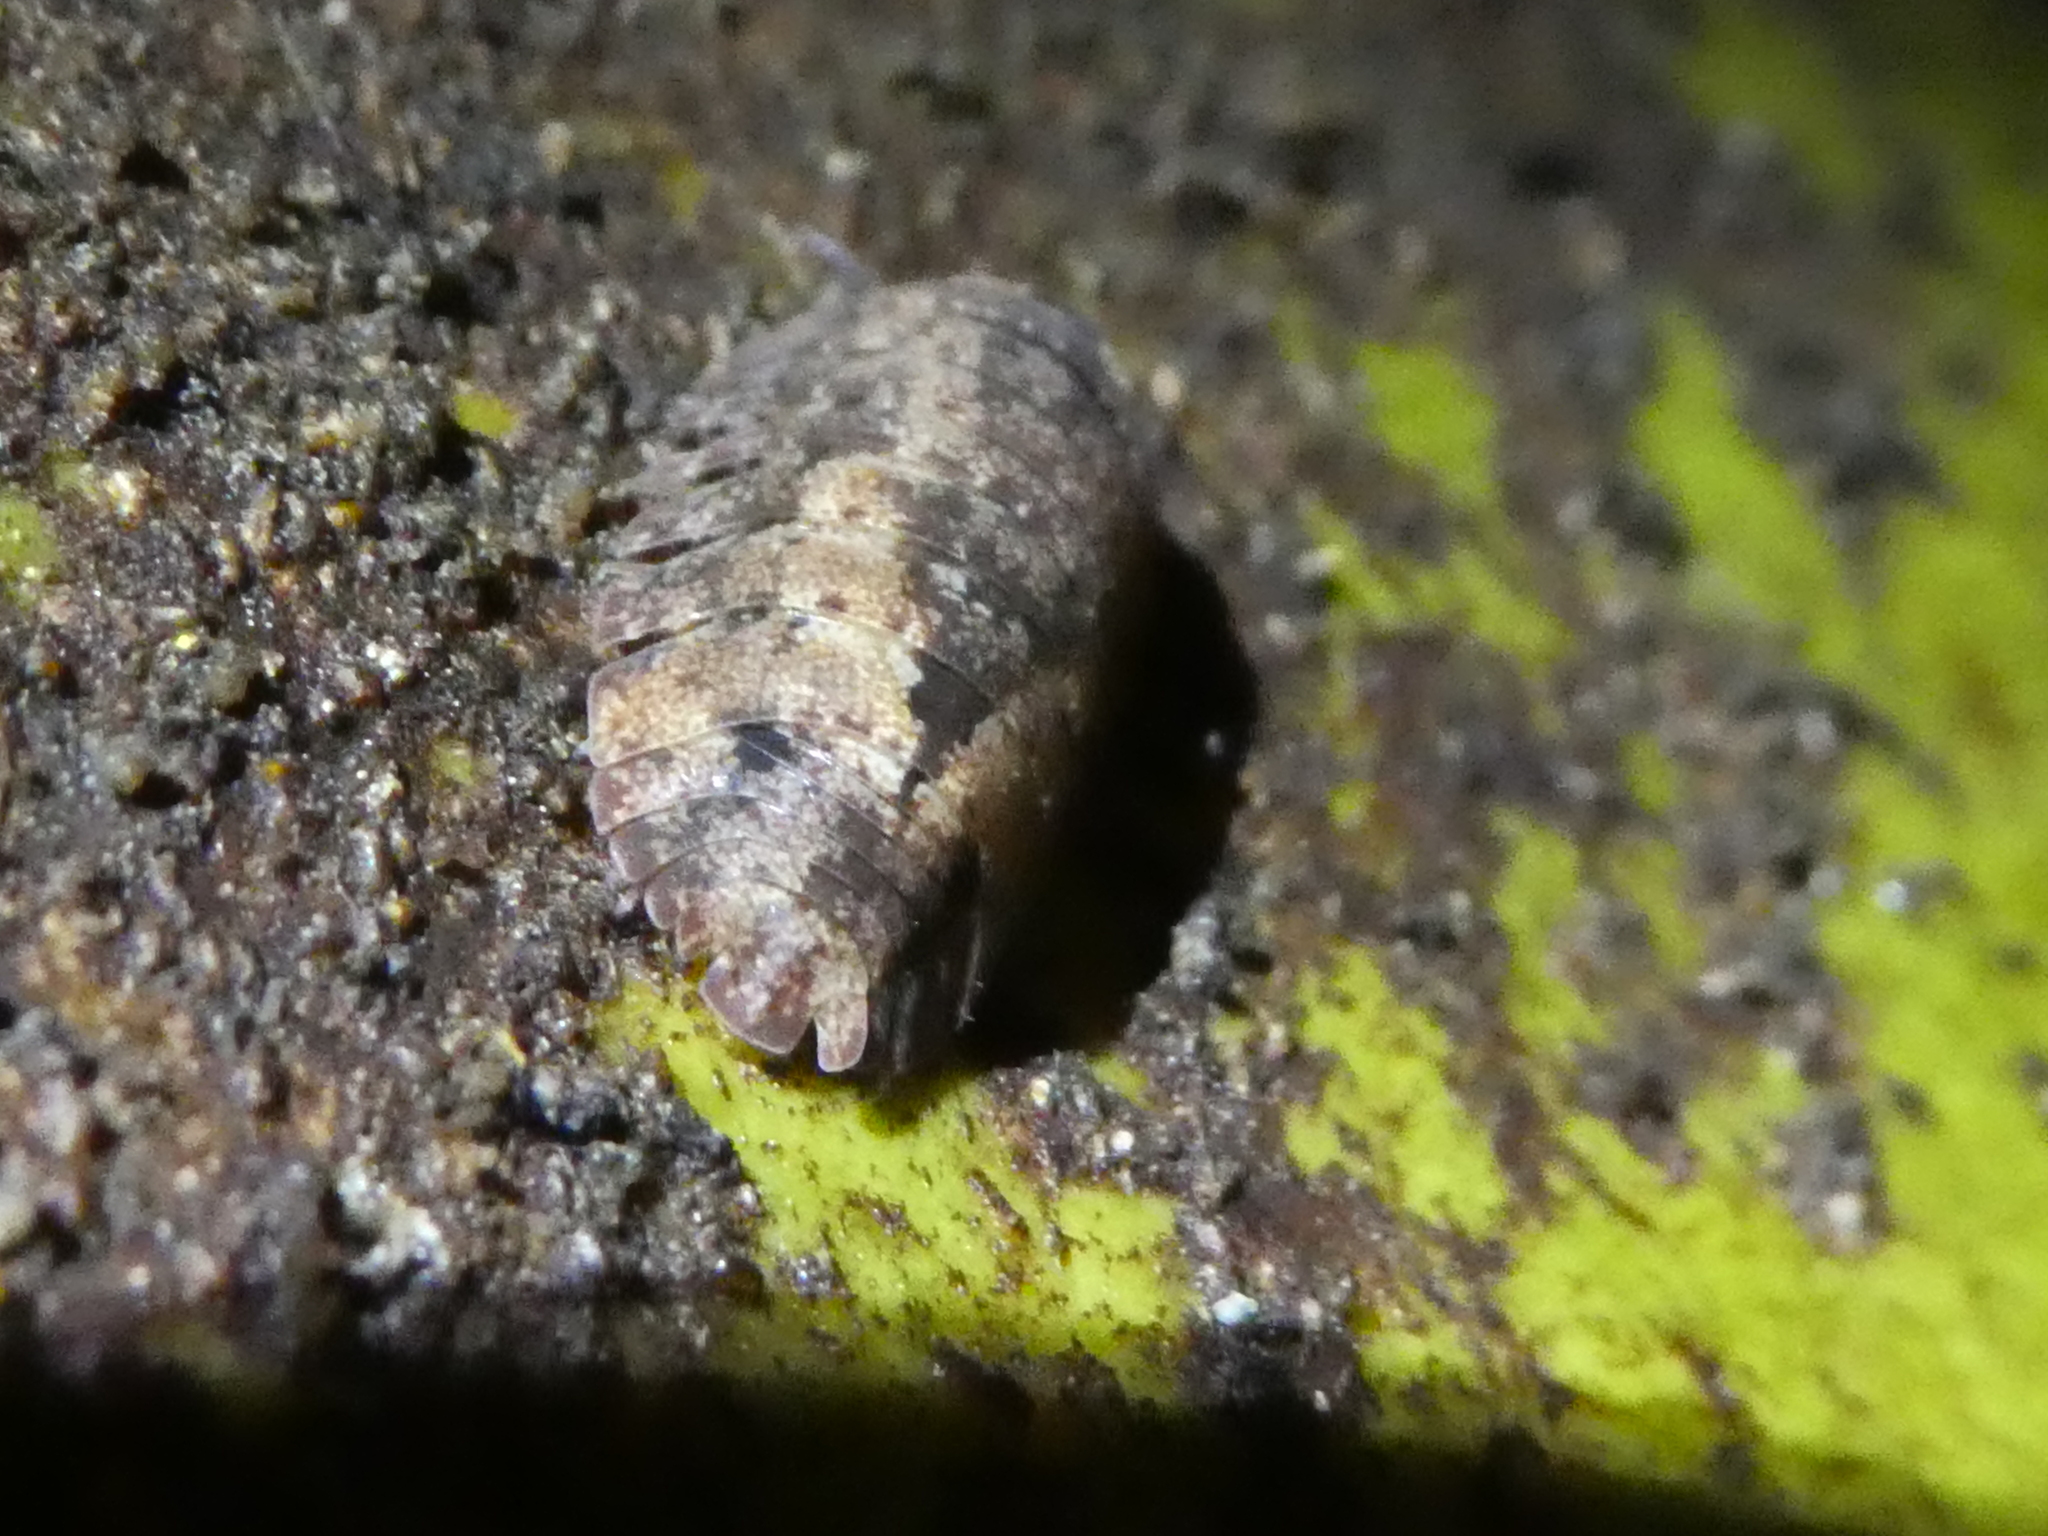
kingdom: Animalia
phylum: Arthropoda
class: Malacostraca
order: Isopoda
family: Armadillidae
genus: Cubaris
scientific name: Cubaris tarangensis
